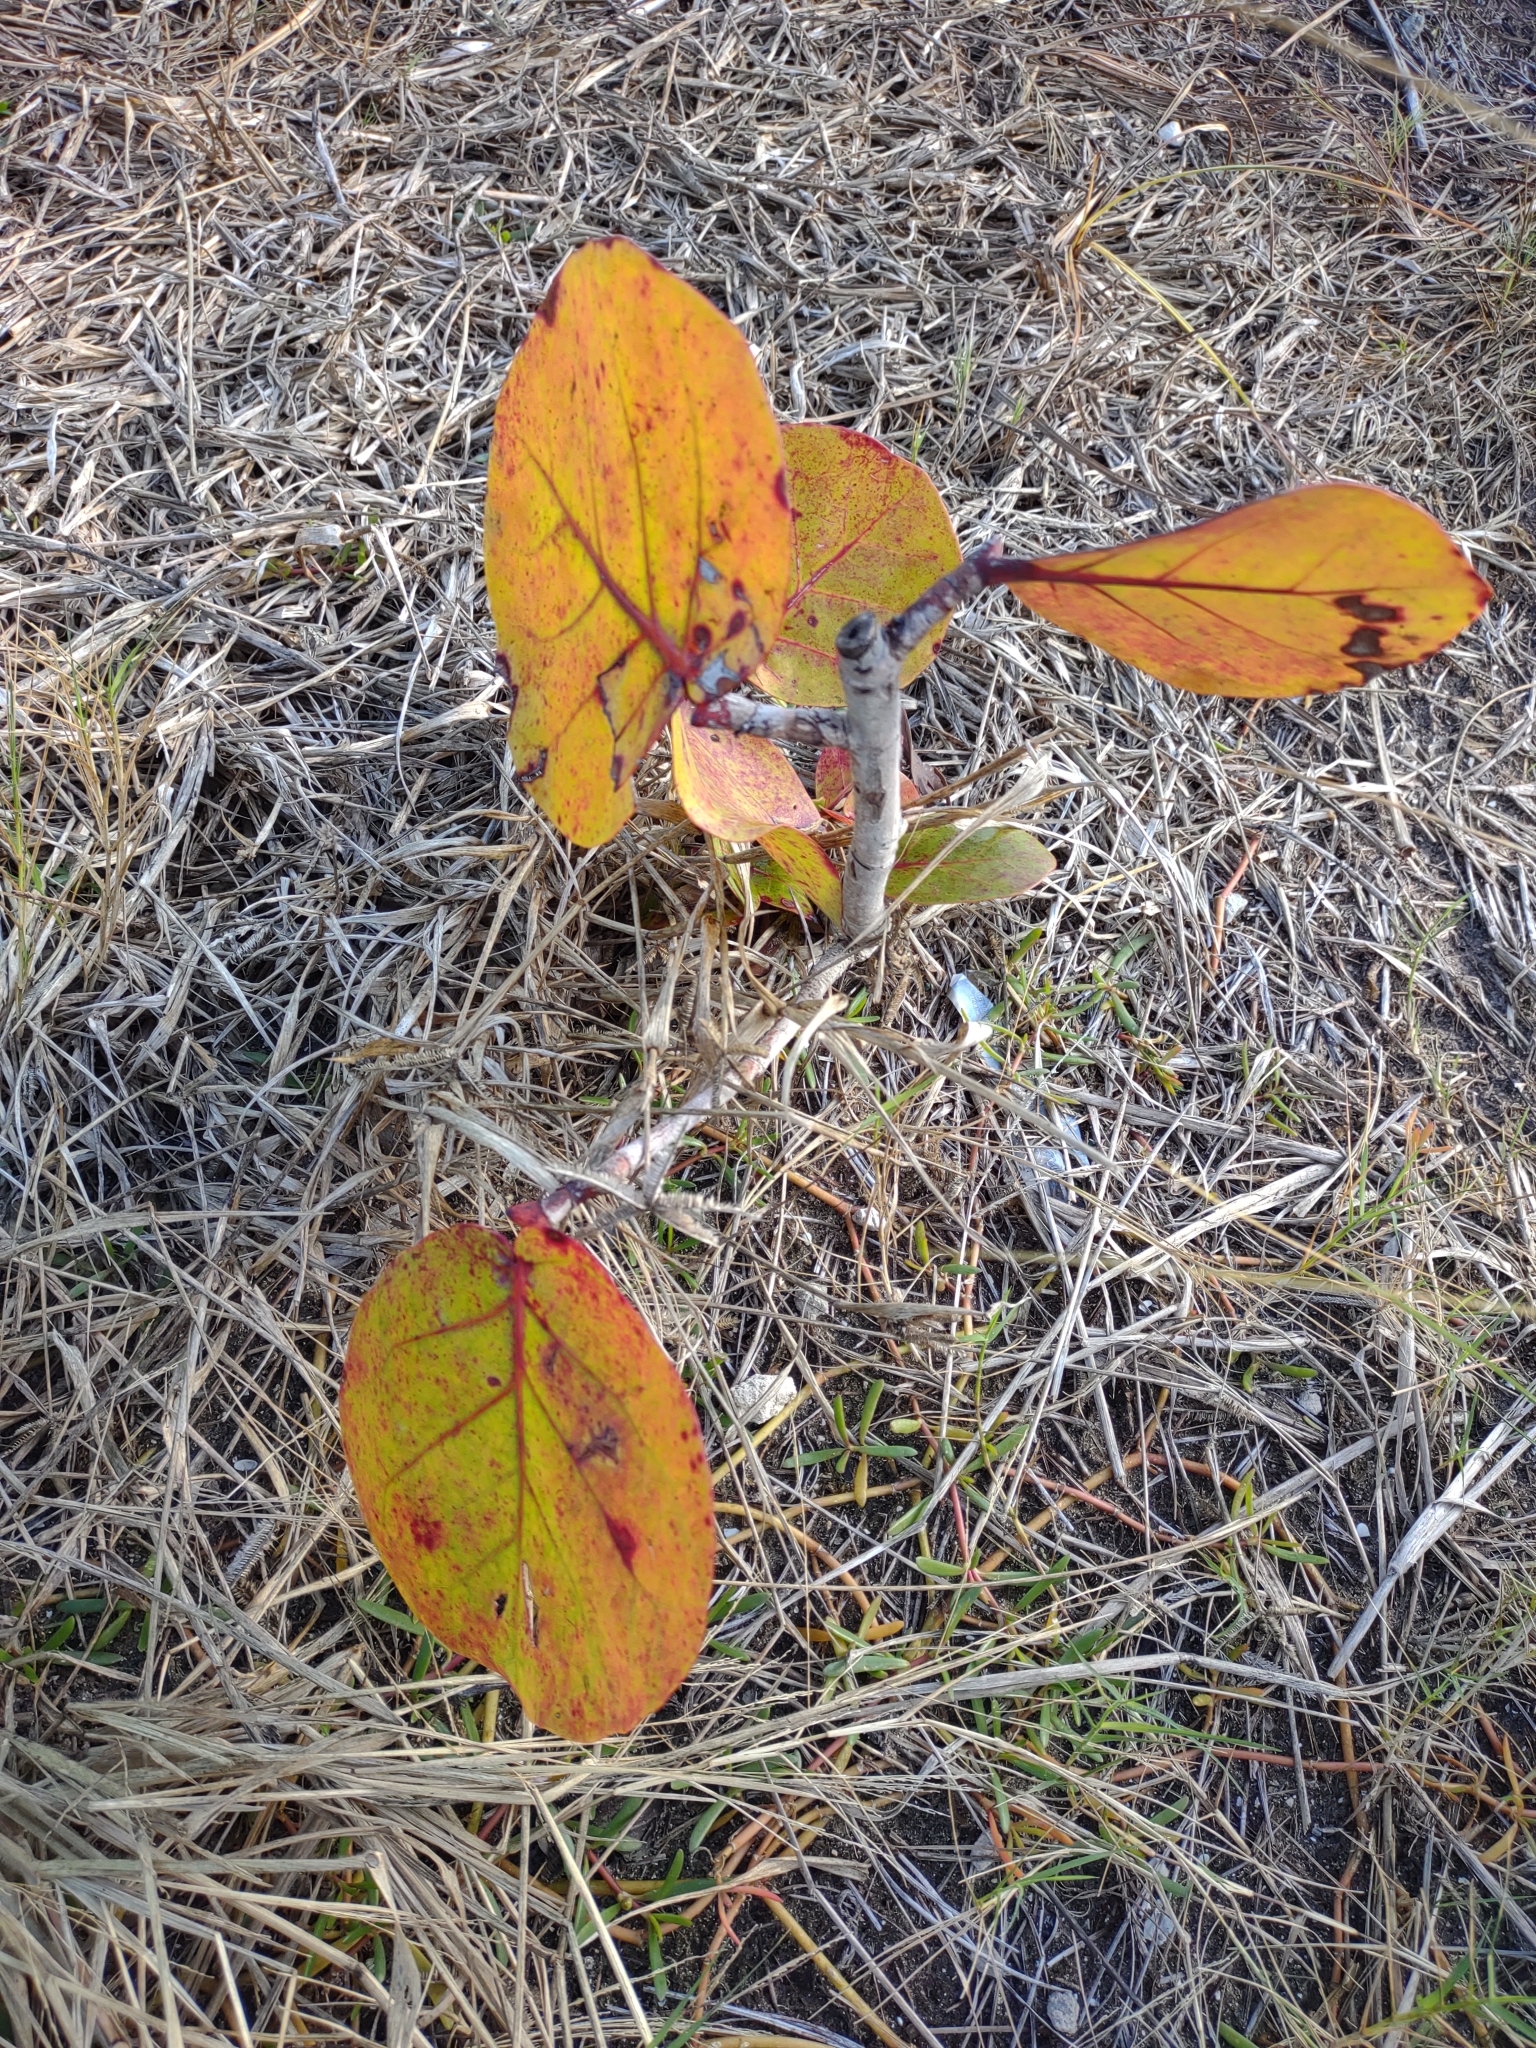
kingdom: Plantae
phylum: Tracheophyta
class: Magnoliopsida
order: Caryophyllales
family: Polygonaceae
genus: Coccoloba
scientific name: Coccoloba uvifera
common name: Seagrape
